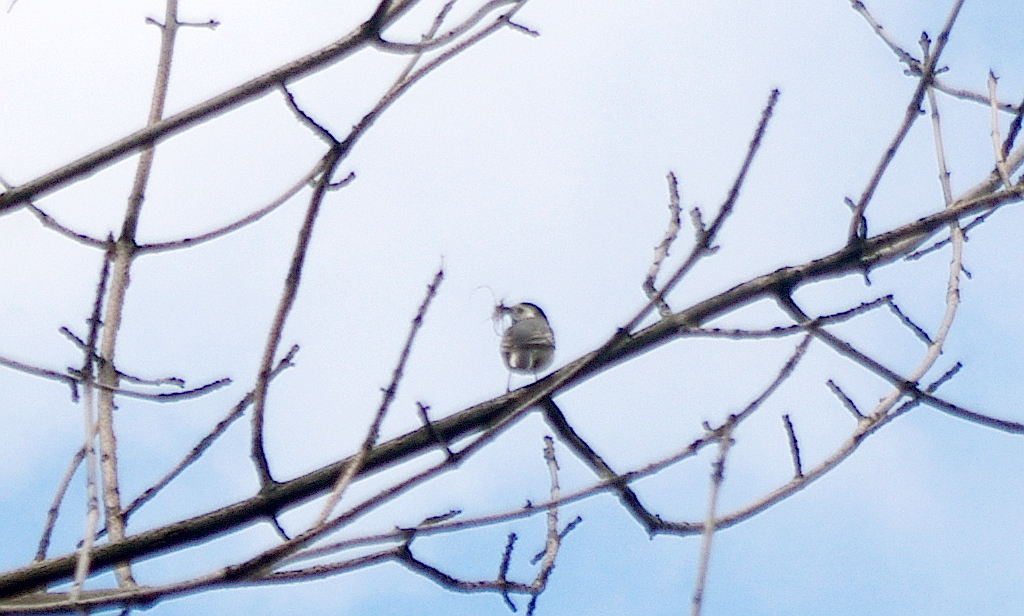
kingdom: Animalia
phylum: Chordata
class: Aves
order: Passeriformes
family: Motacillidae
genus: Motacilla
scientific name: Motacilla alba
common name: White wagtail
